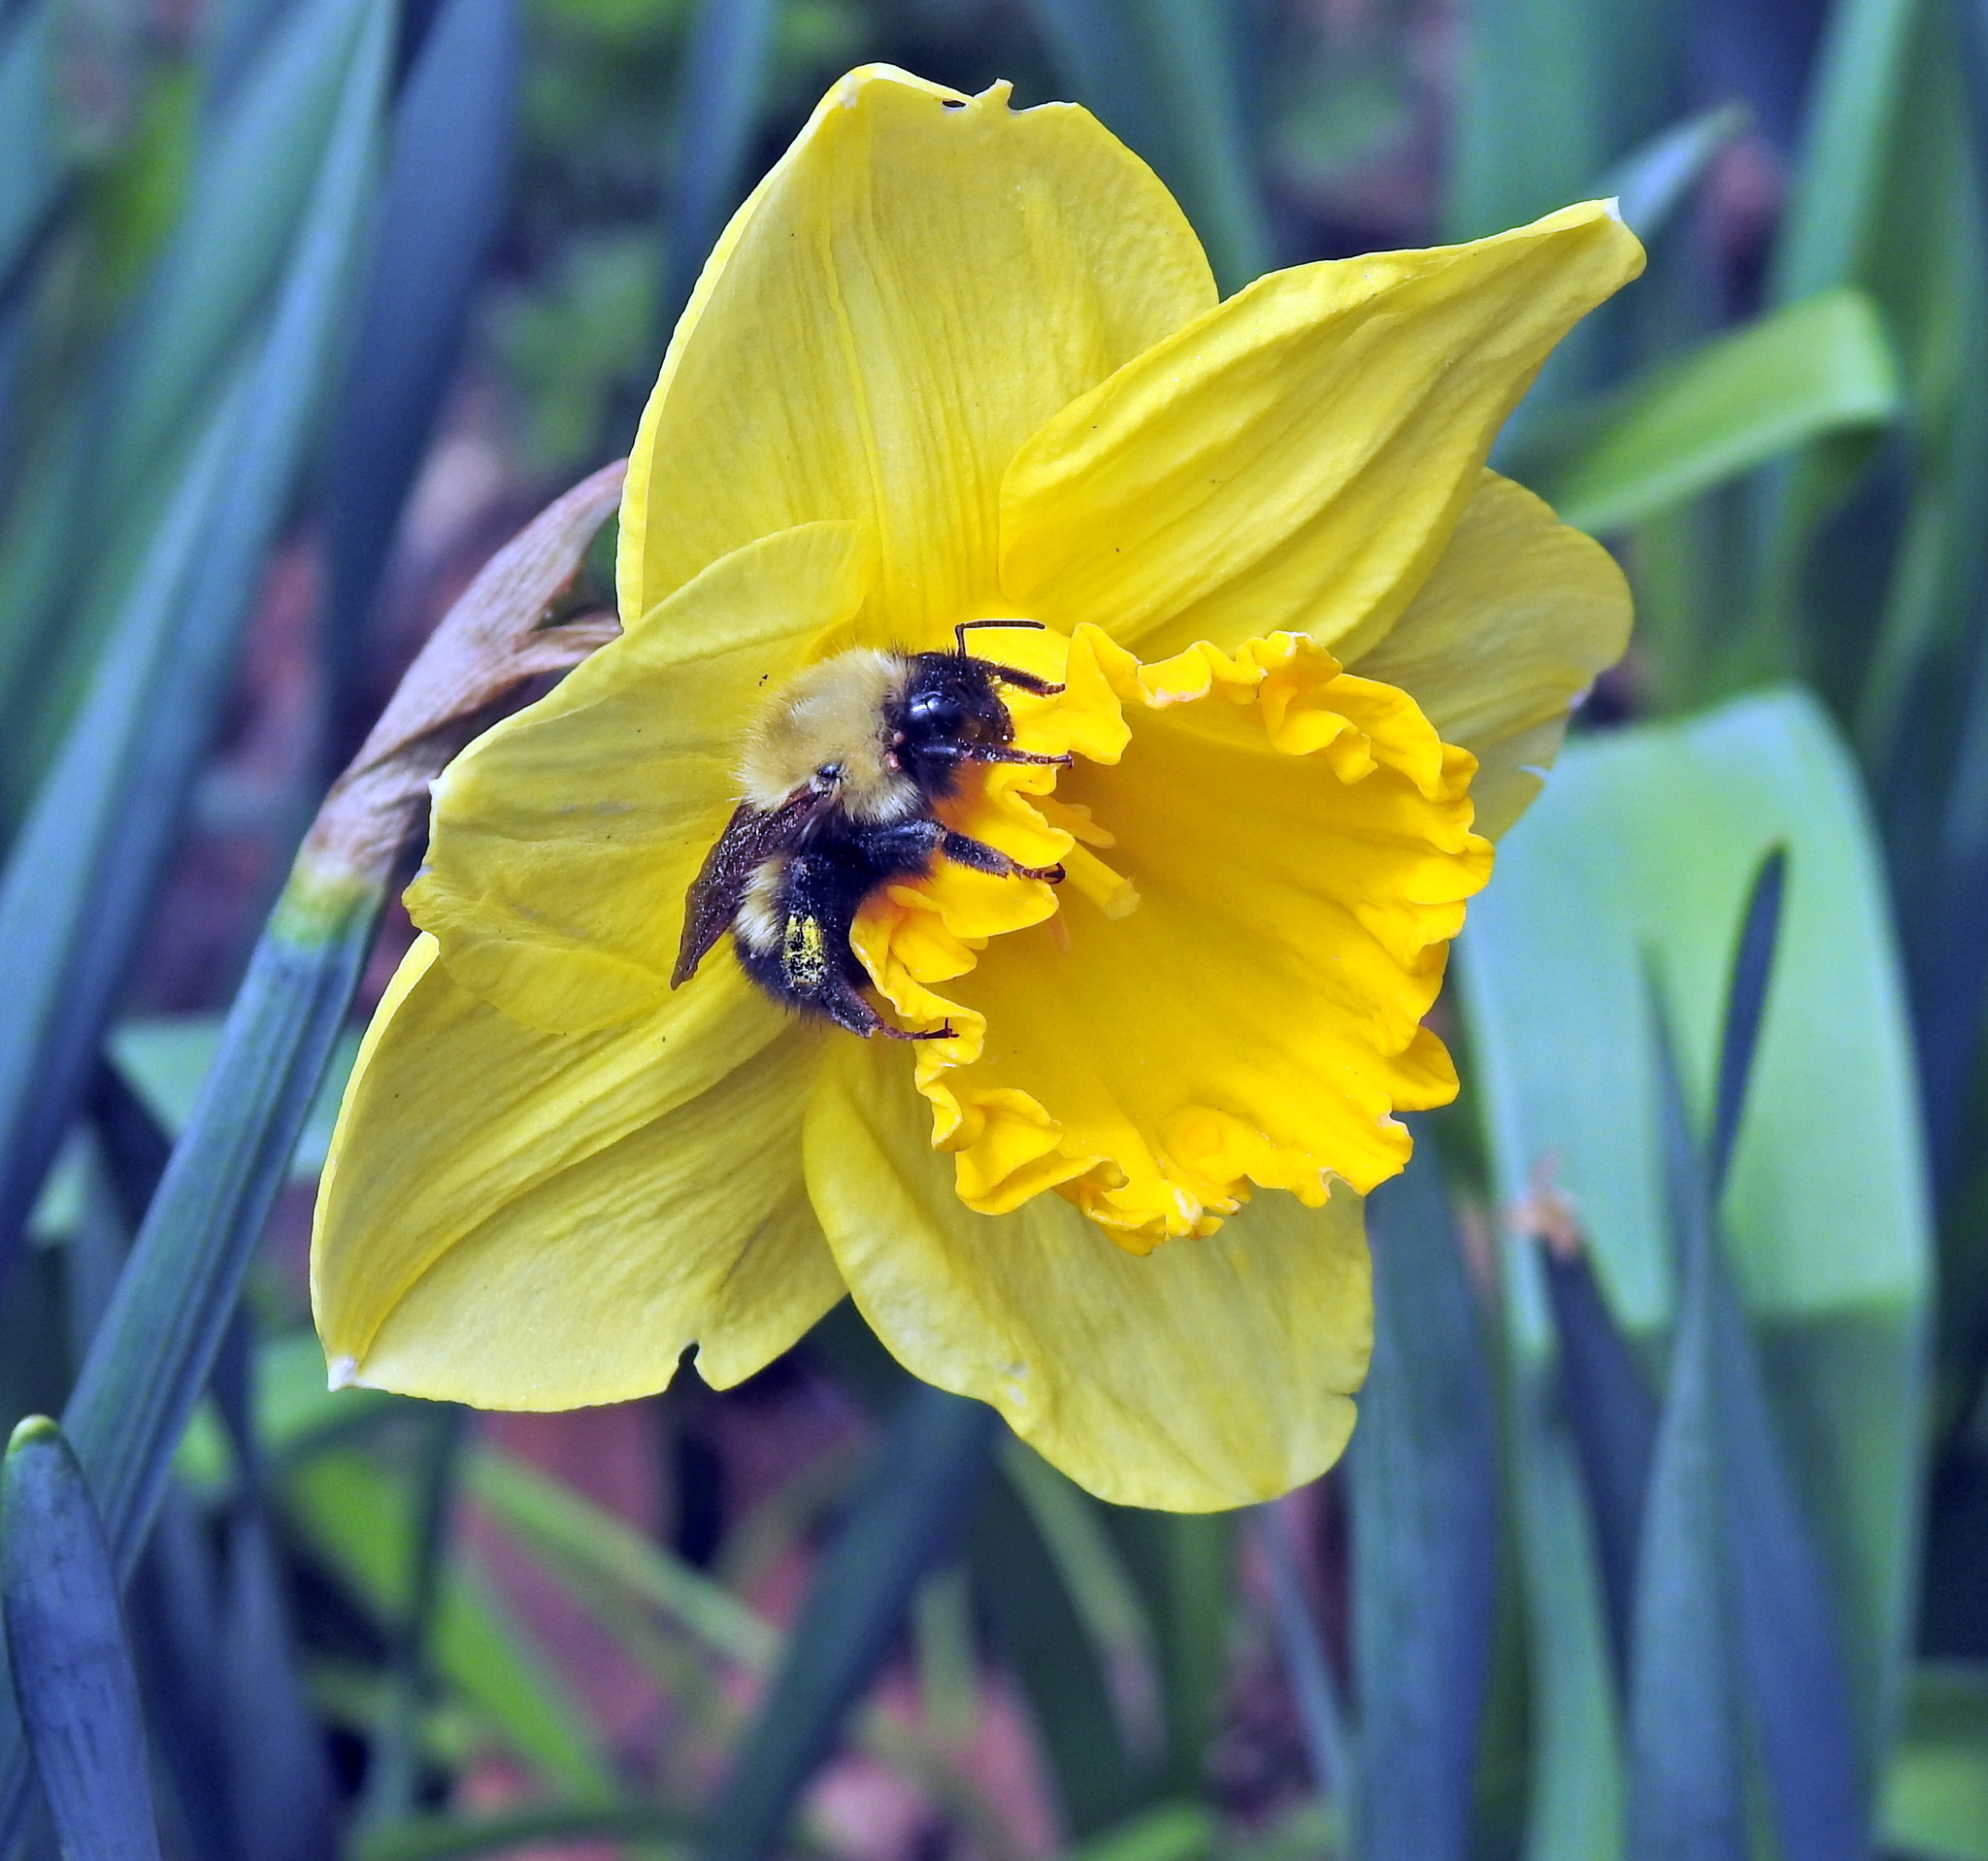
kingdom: Animalia
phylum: Arthropoda
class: Insecta
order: Hymenoptera
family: Apidae
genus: Bombus
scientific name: Bombus perplexus
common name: Confusing bumble bee
